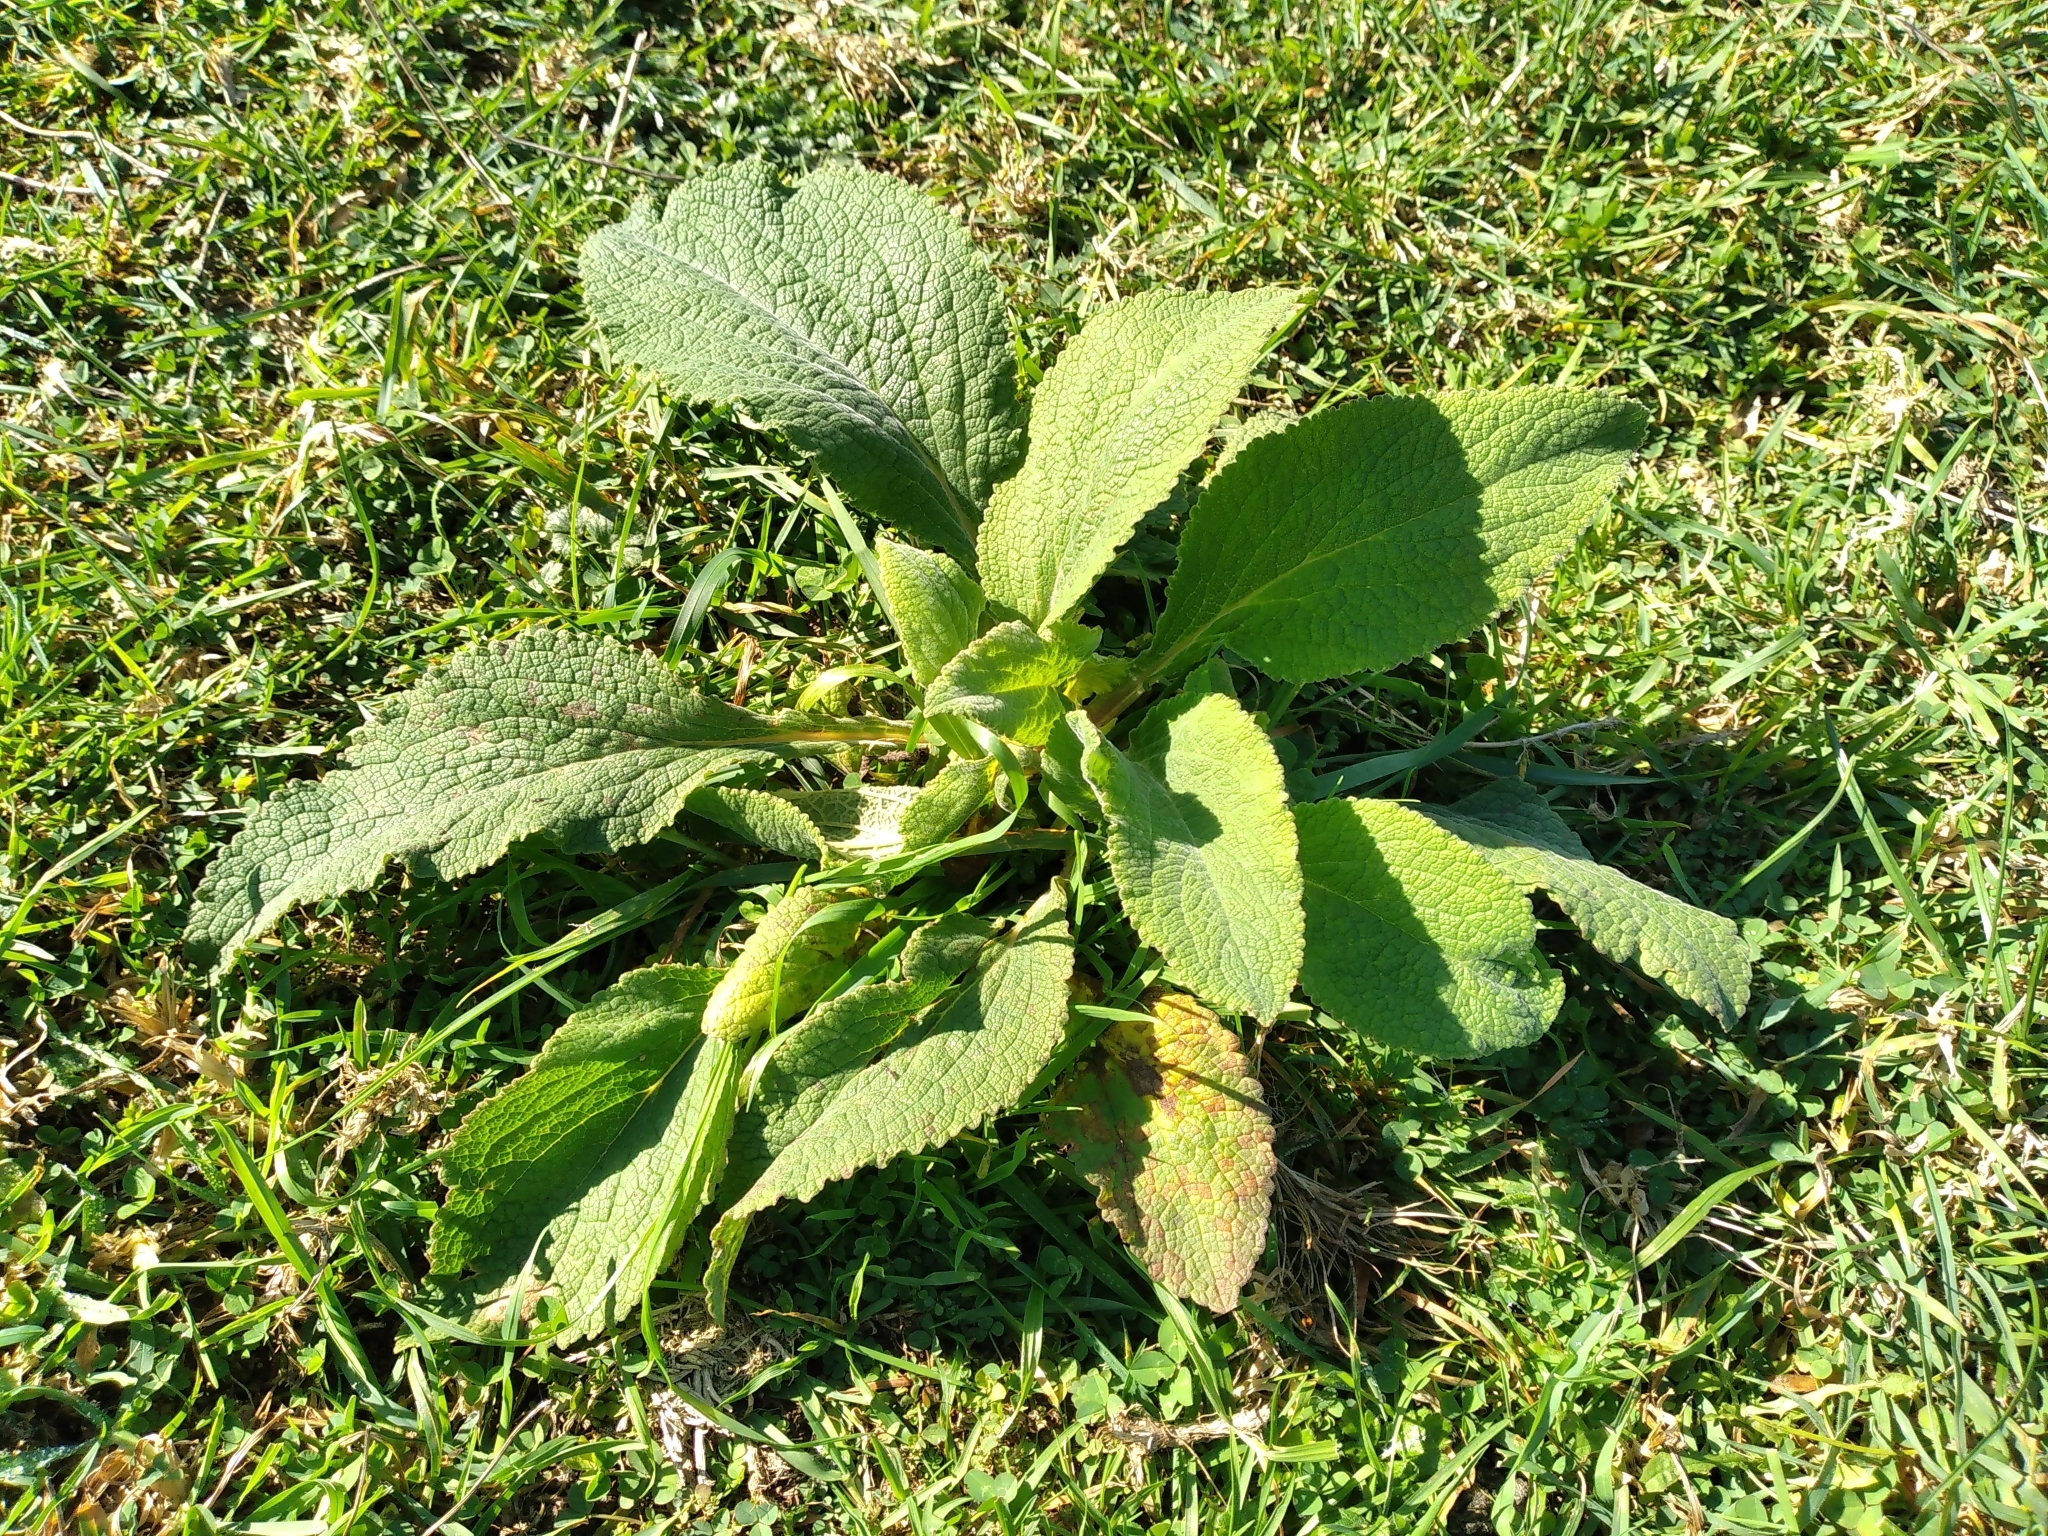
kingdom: Plantae
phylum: Tracheophyta
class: Magnoliopsida
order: Lamiales
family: Plantaginaceae
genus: Digitalis
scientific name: Digitalis purpurea
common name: Foxglove
